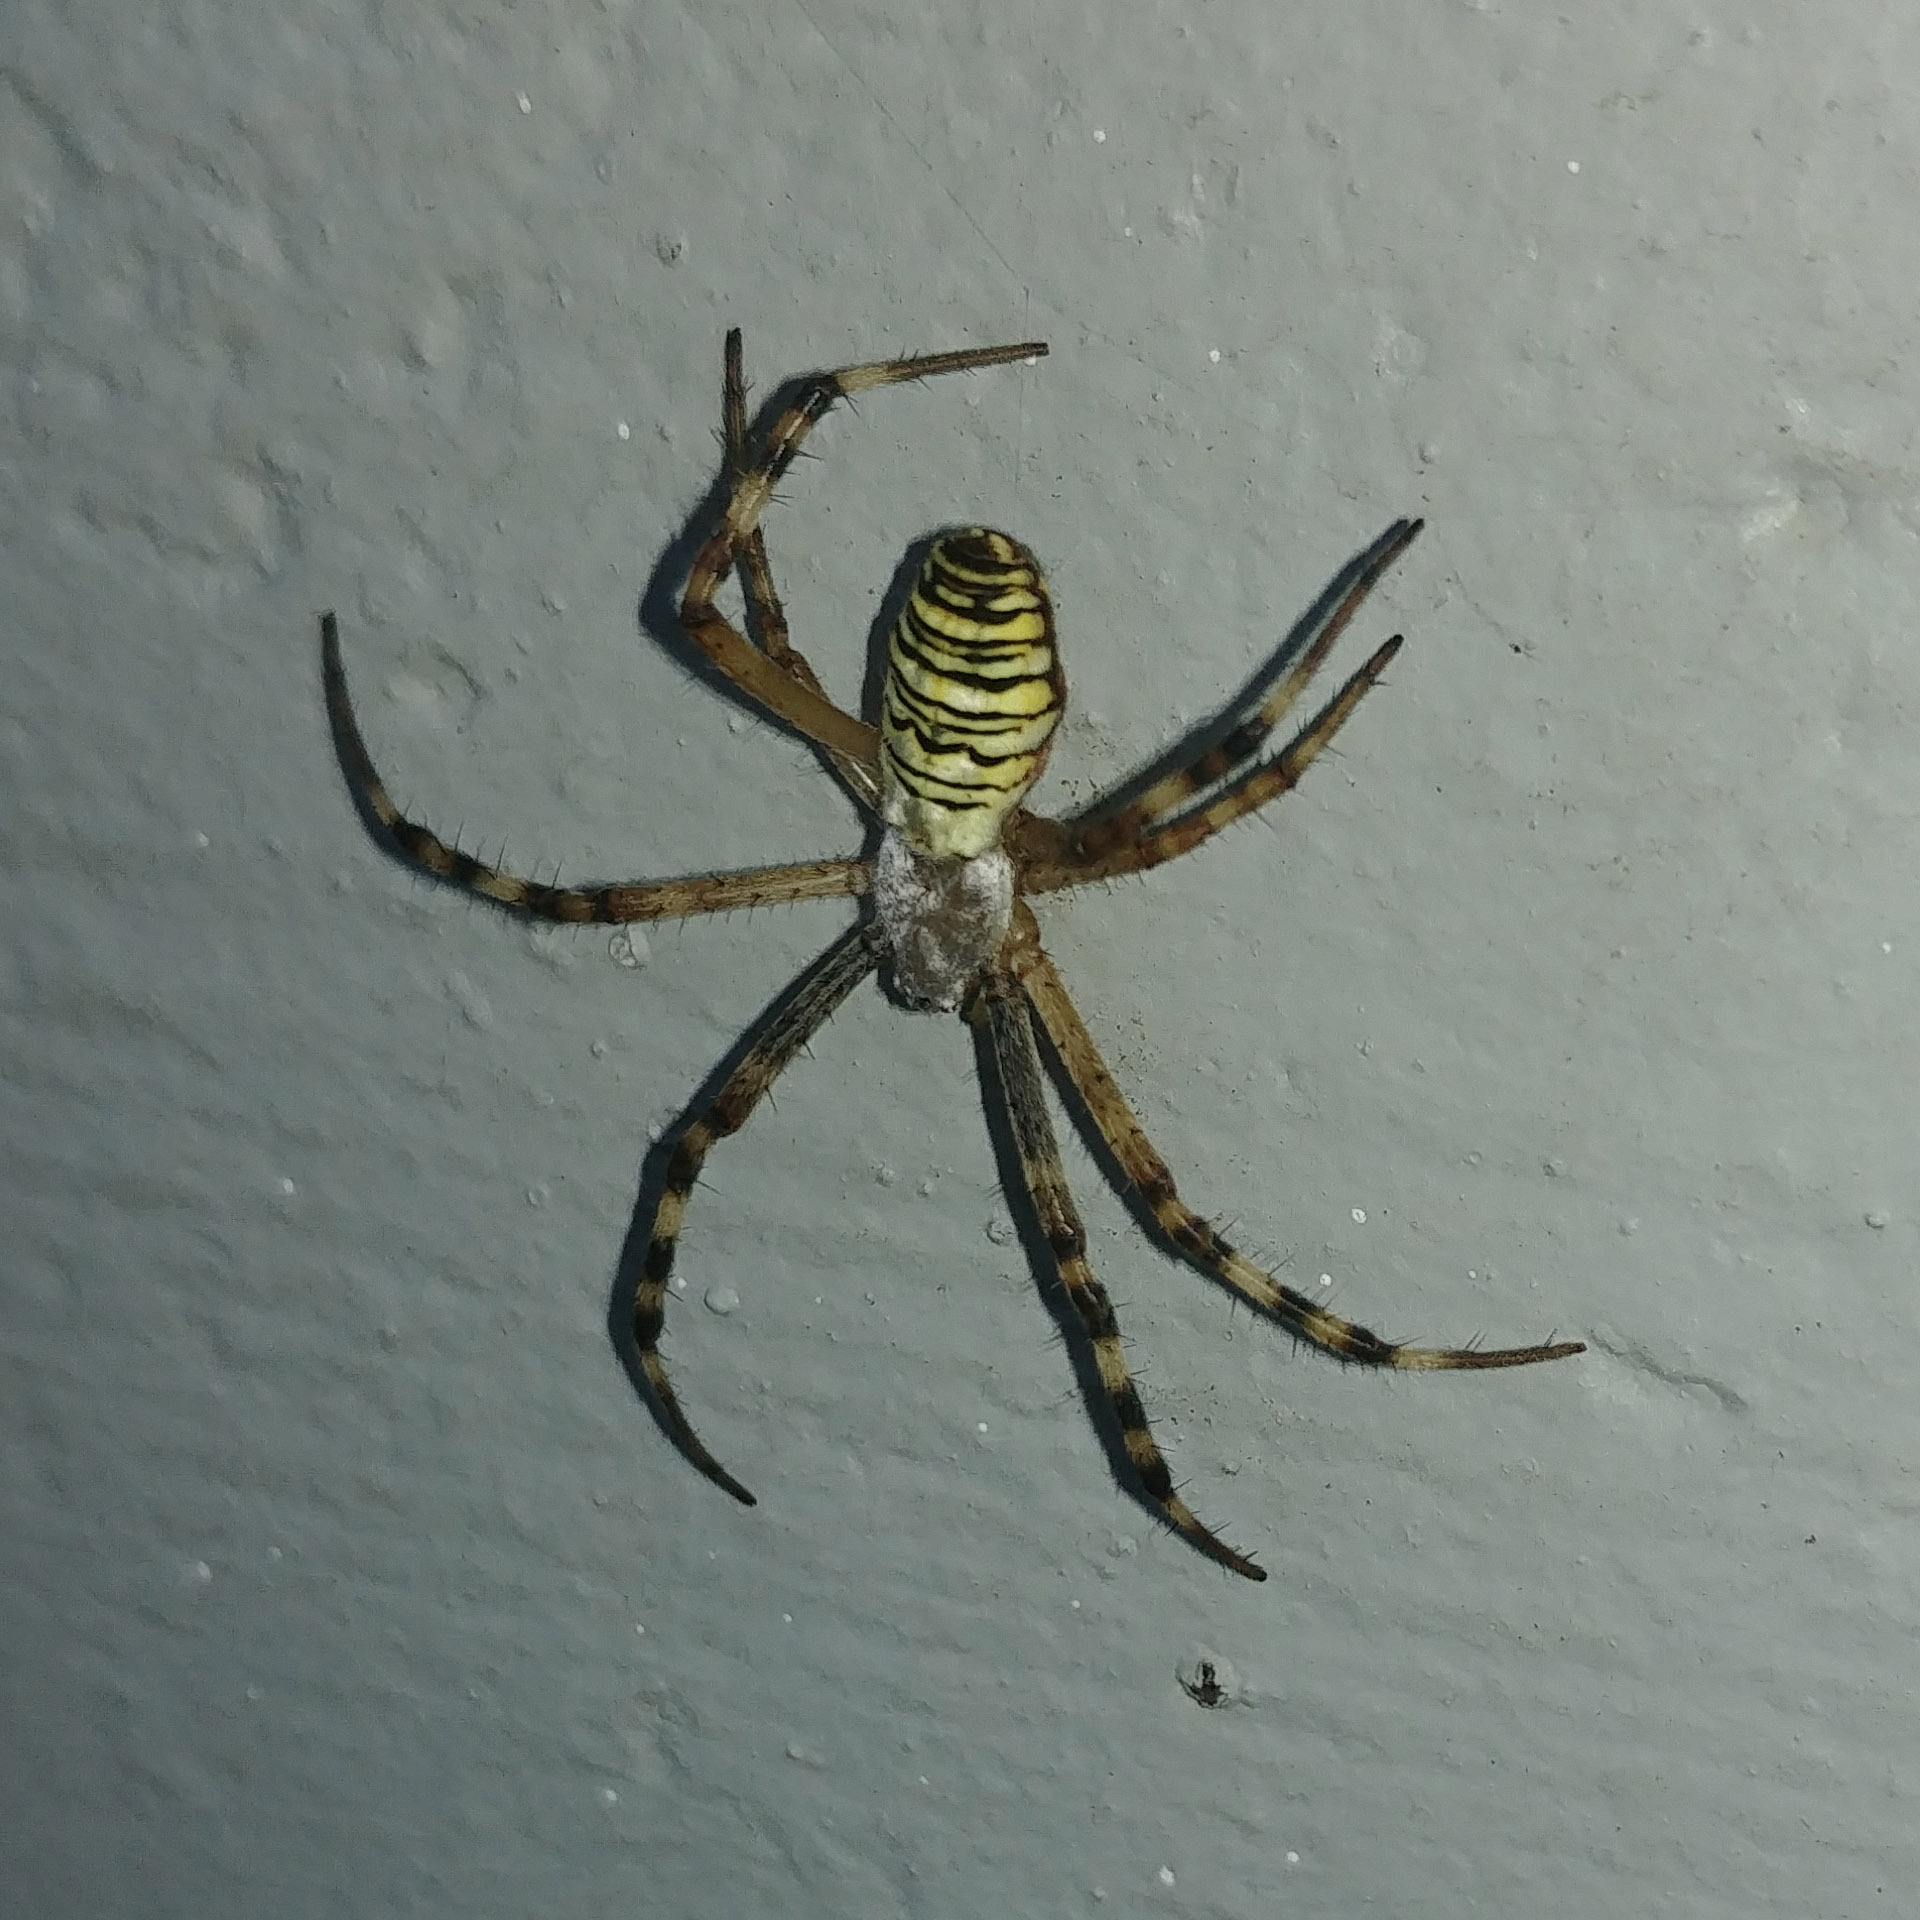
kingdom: Animalia
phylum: Arthropoda
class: Arachnida
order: Araneae
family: Araneidae
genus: Argiope
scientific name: Argiope bruennichi
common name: Wasp spider
